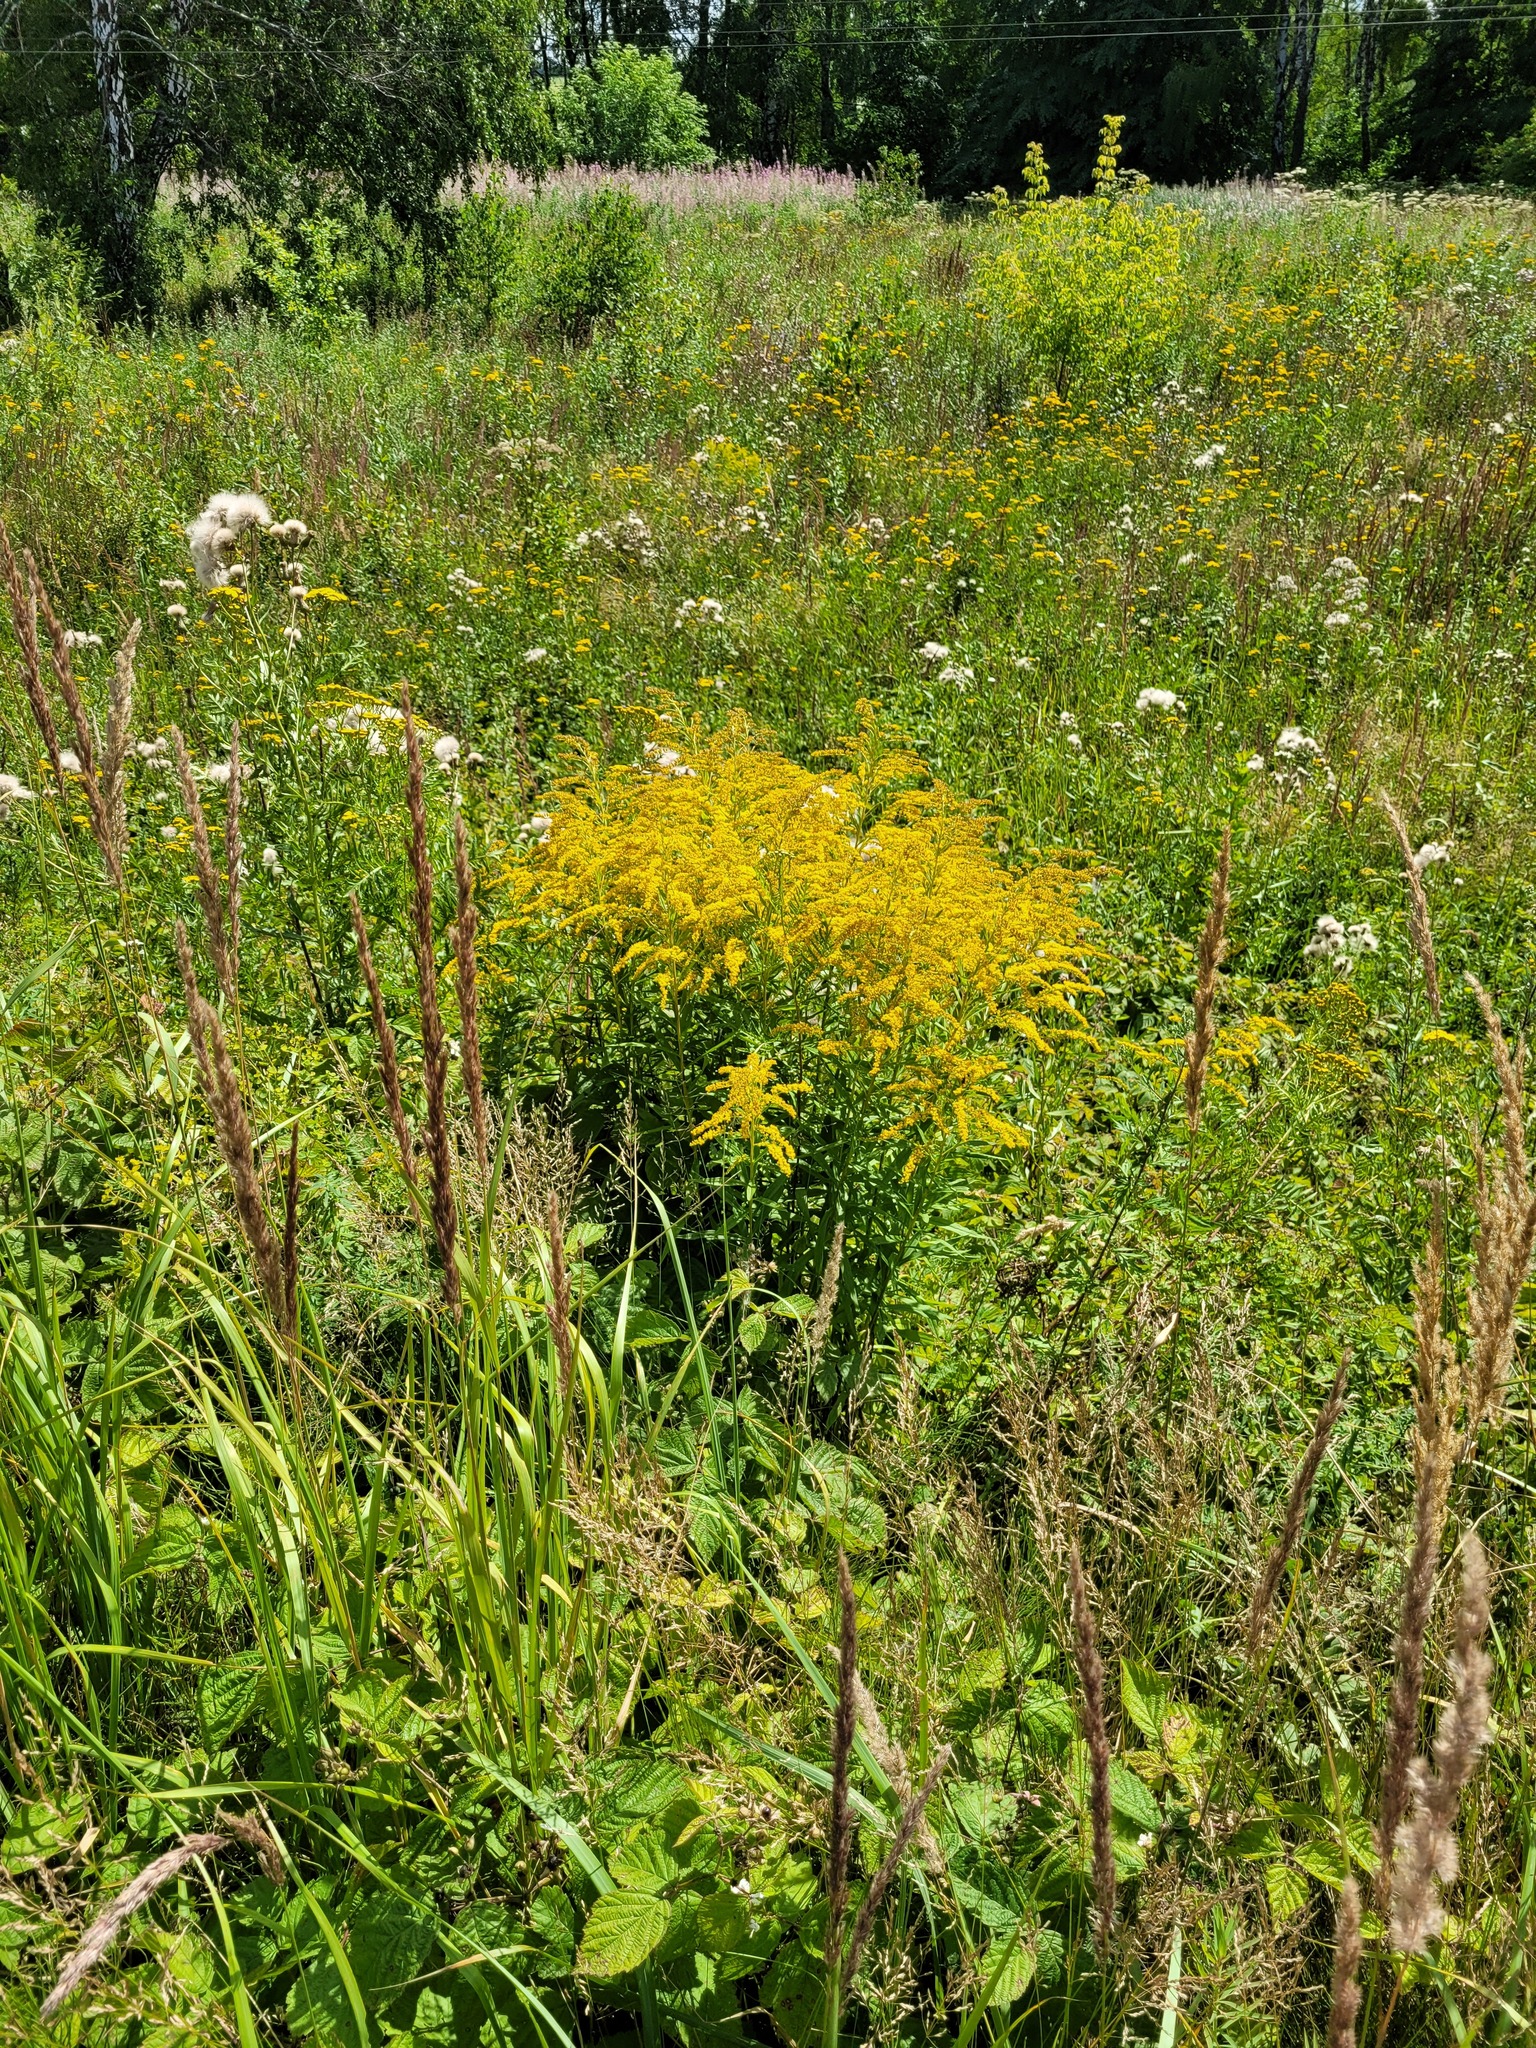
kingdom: Plantae
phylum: Tracheophyta
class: Magnoliopsida
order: Asterales
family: Asteraceae
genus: Solidago
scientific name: Solidago canadensis
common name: Canada goldenrod
